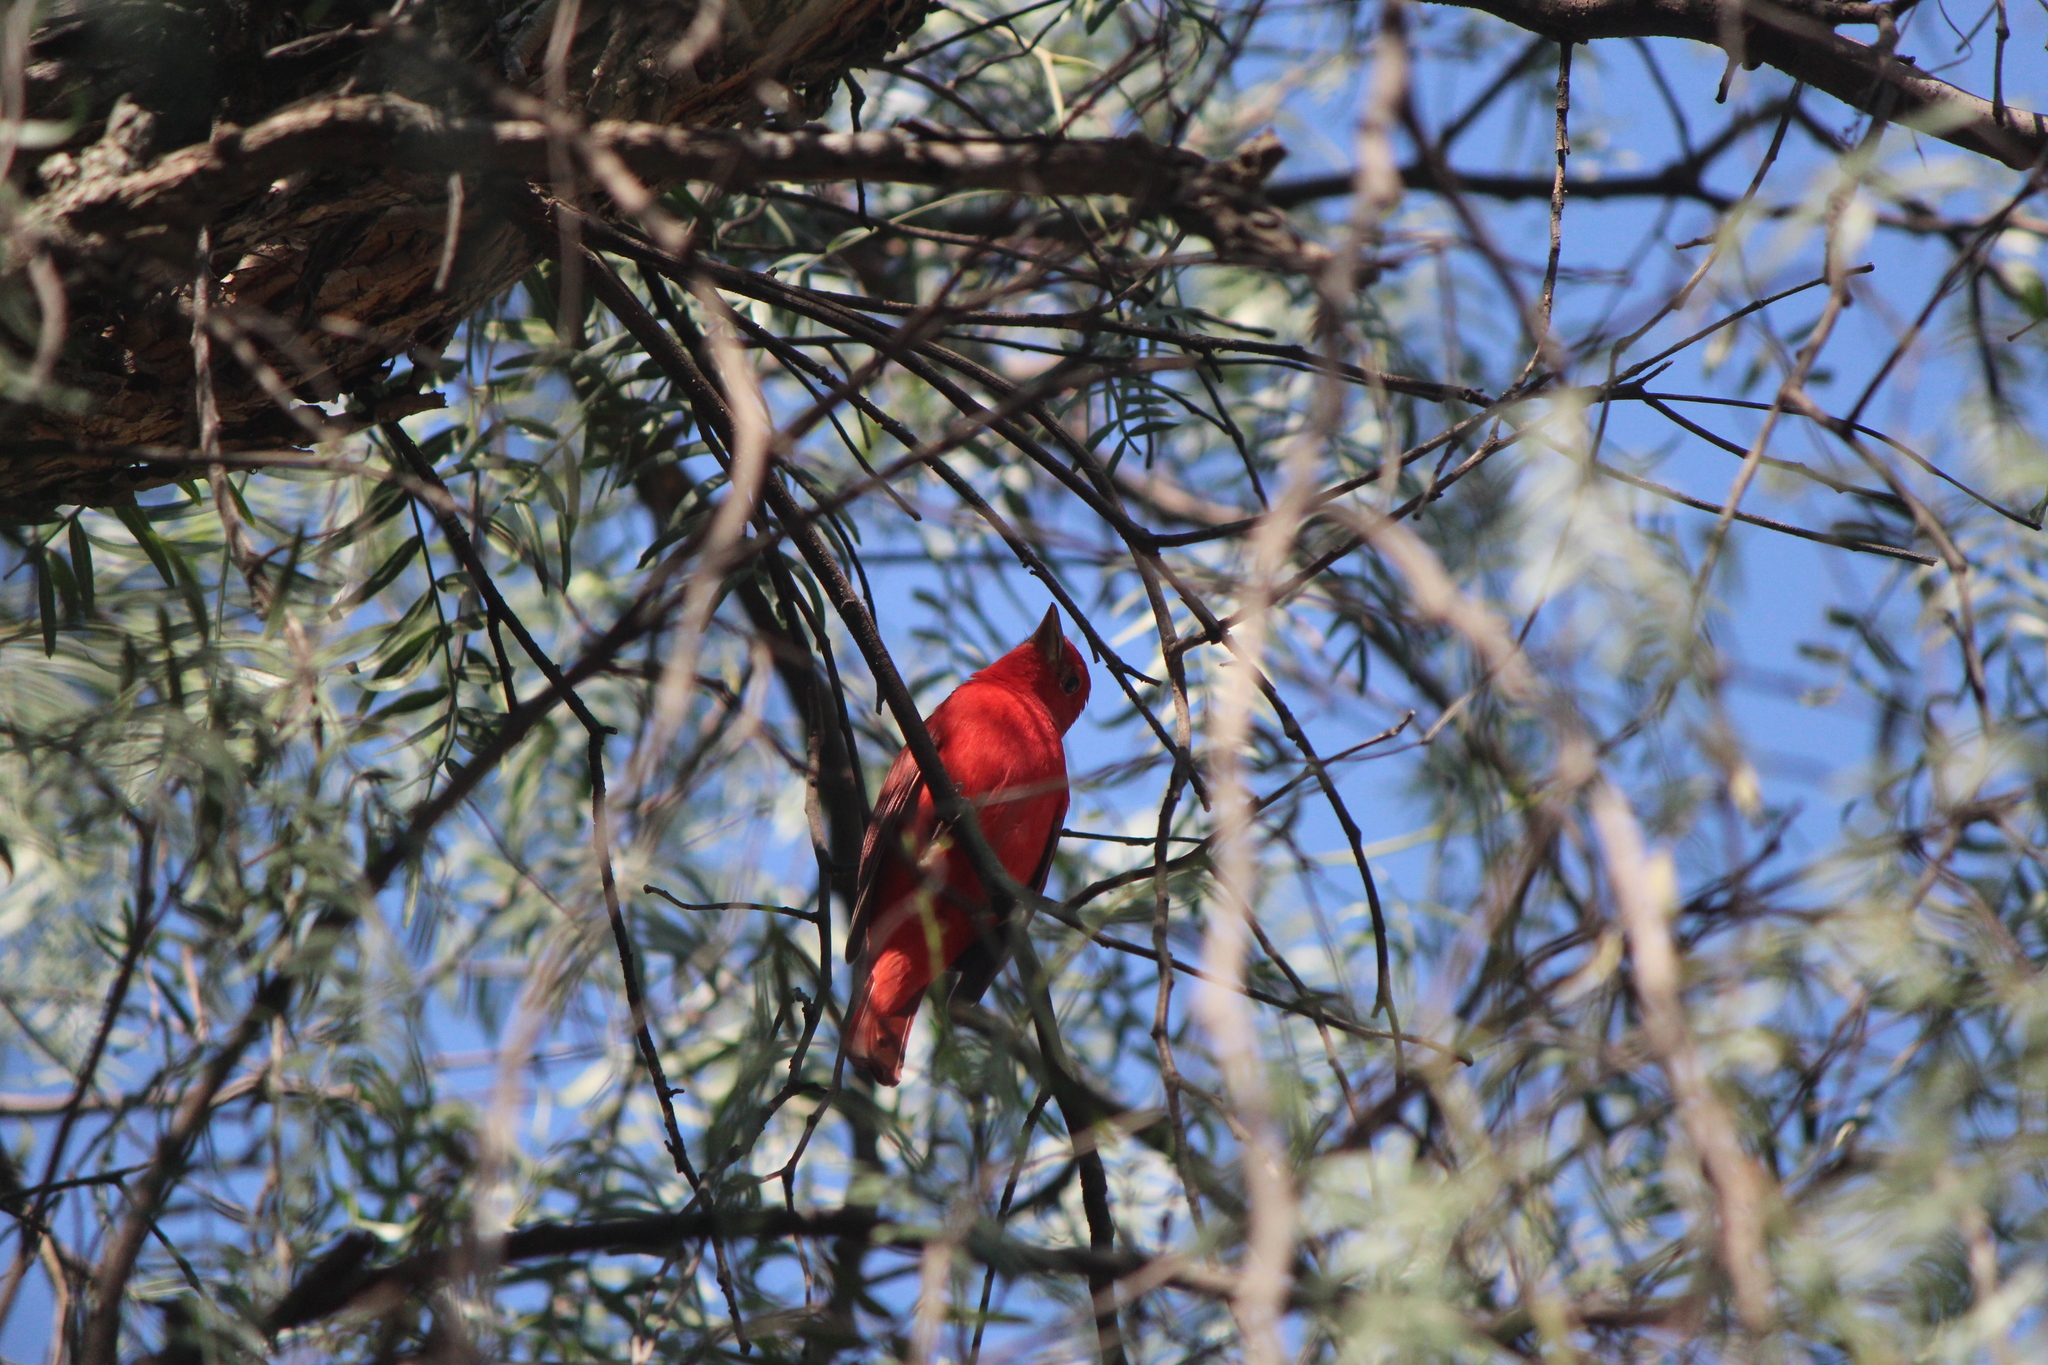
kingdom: Animalia
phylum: Chordata
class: Aves
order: Passeriformes
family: Cardinalidae
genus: Piranga
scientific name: Piranga rubra
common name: Summer tanager
